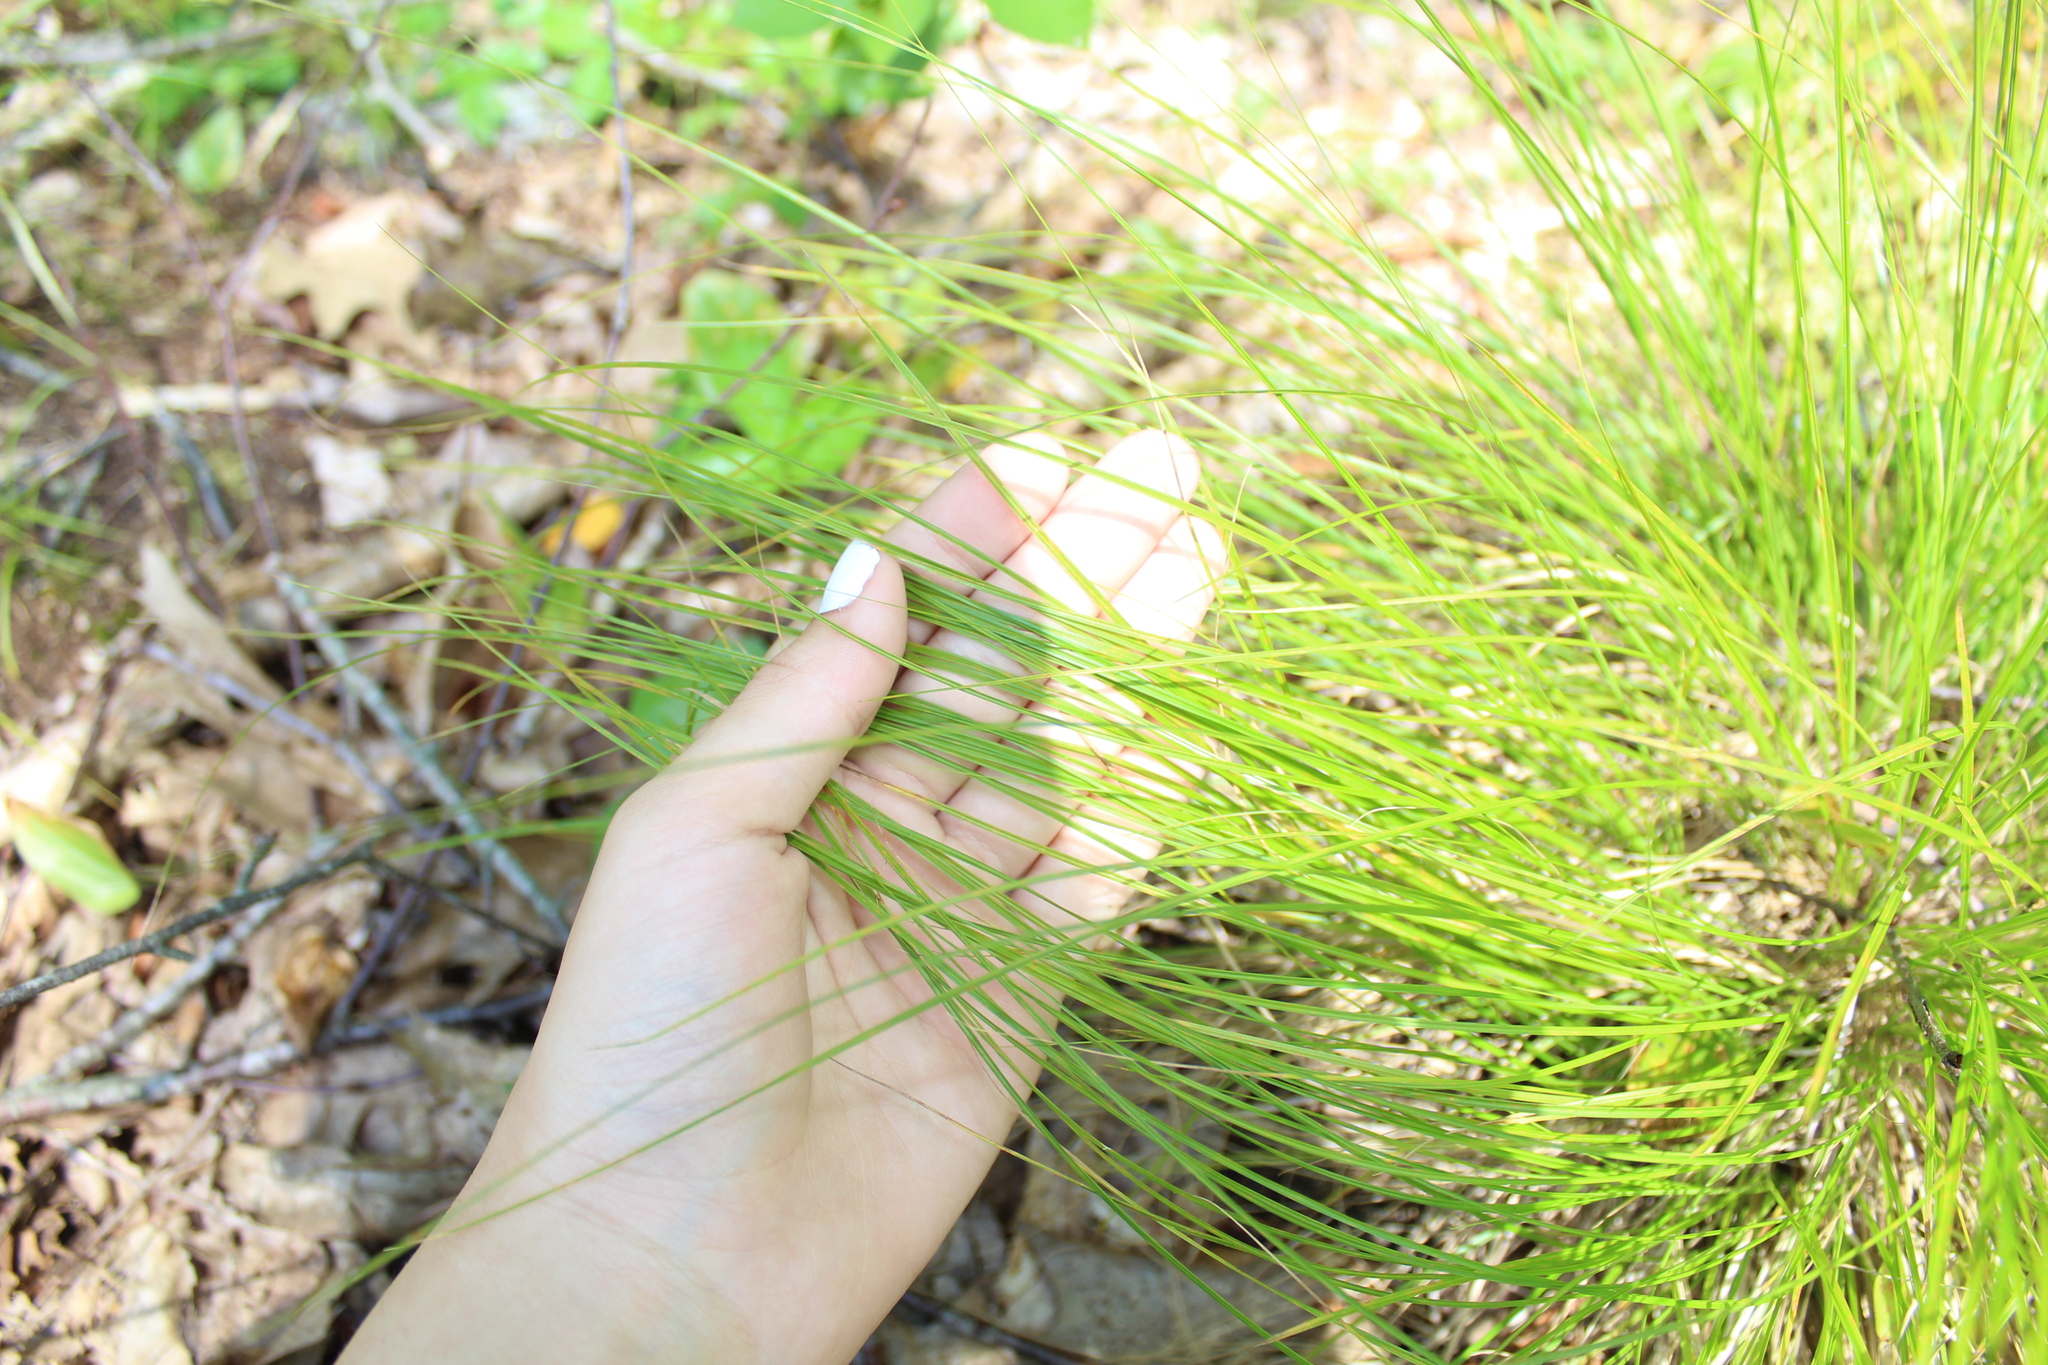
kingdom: Plantae
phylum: Tracheophyta
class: Liliopsida
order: Poales
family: Cyperaceae
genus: Carex
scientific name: Carex
